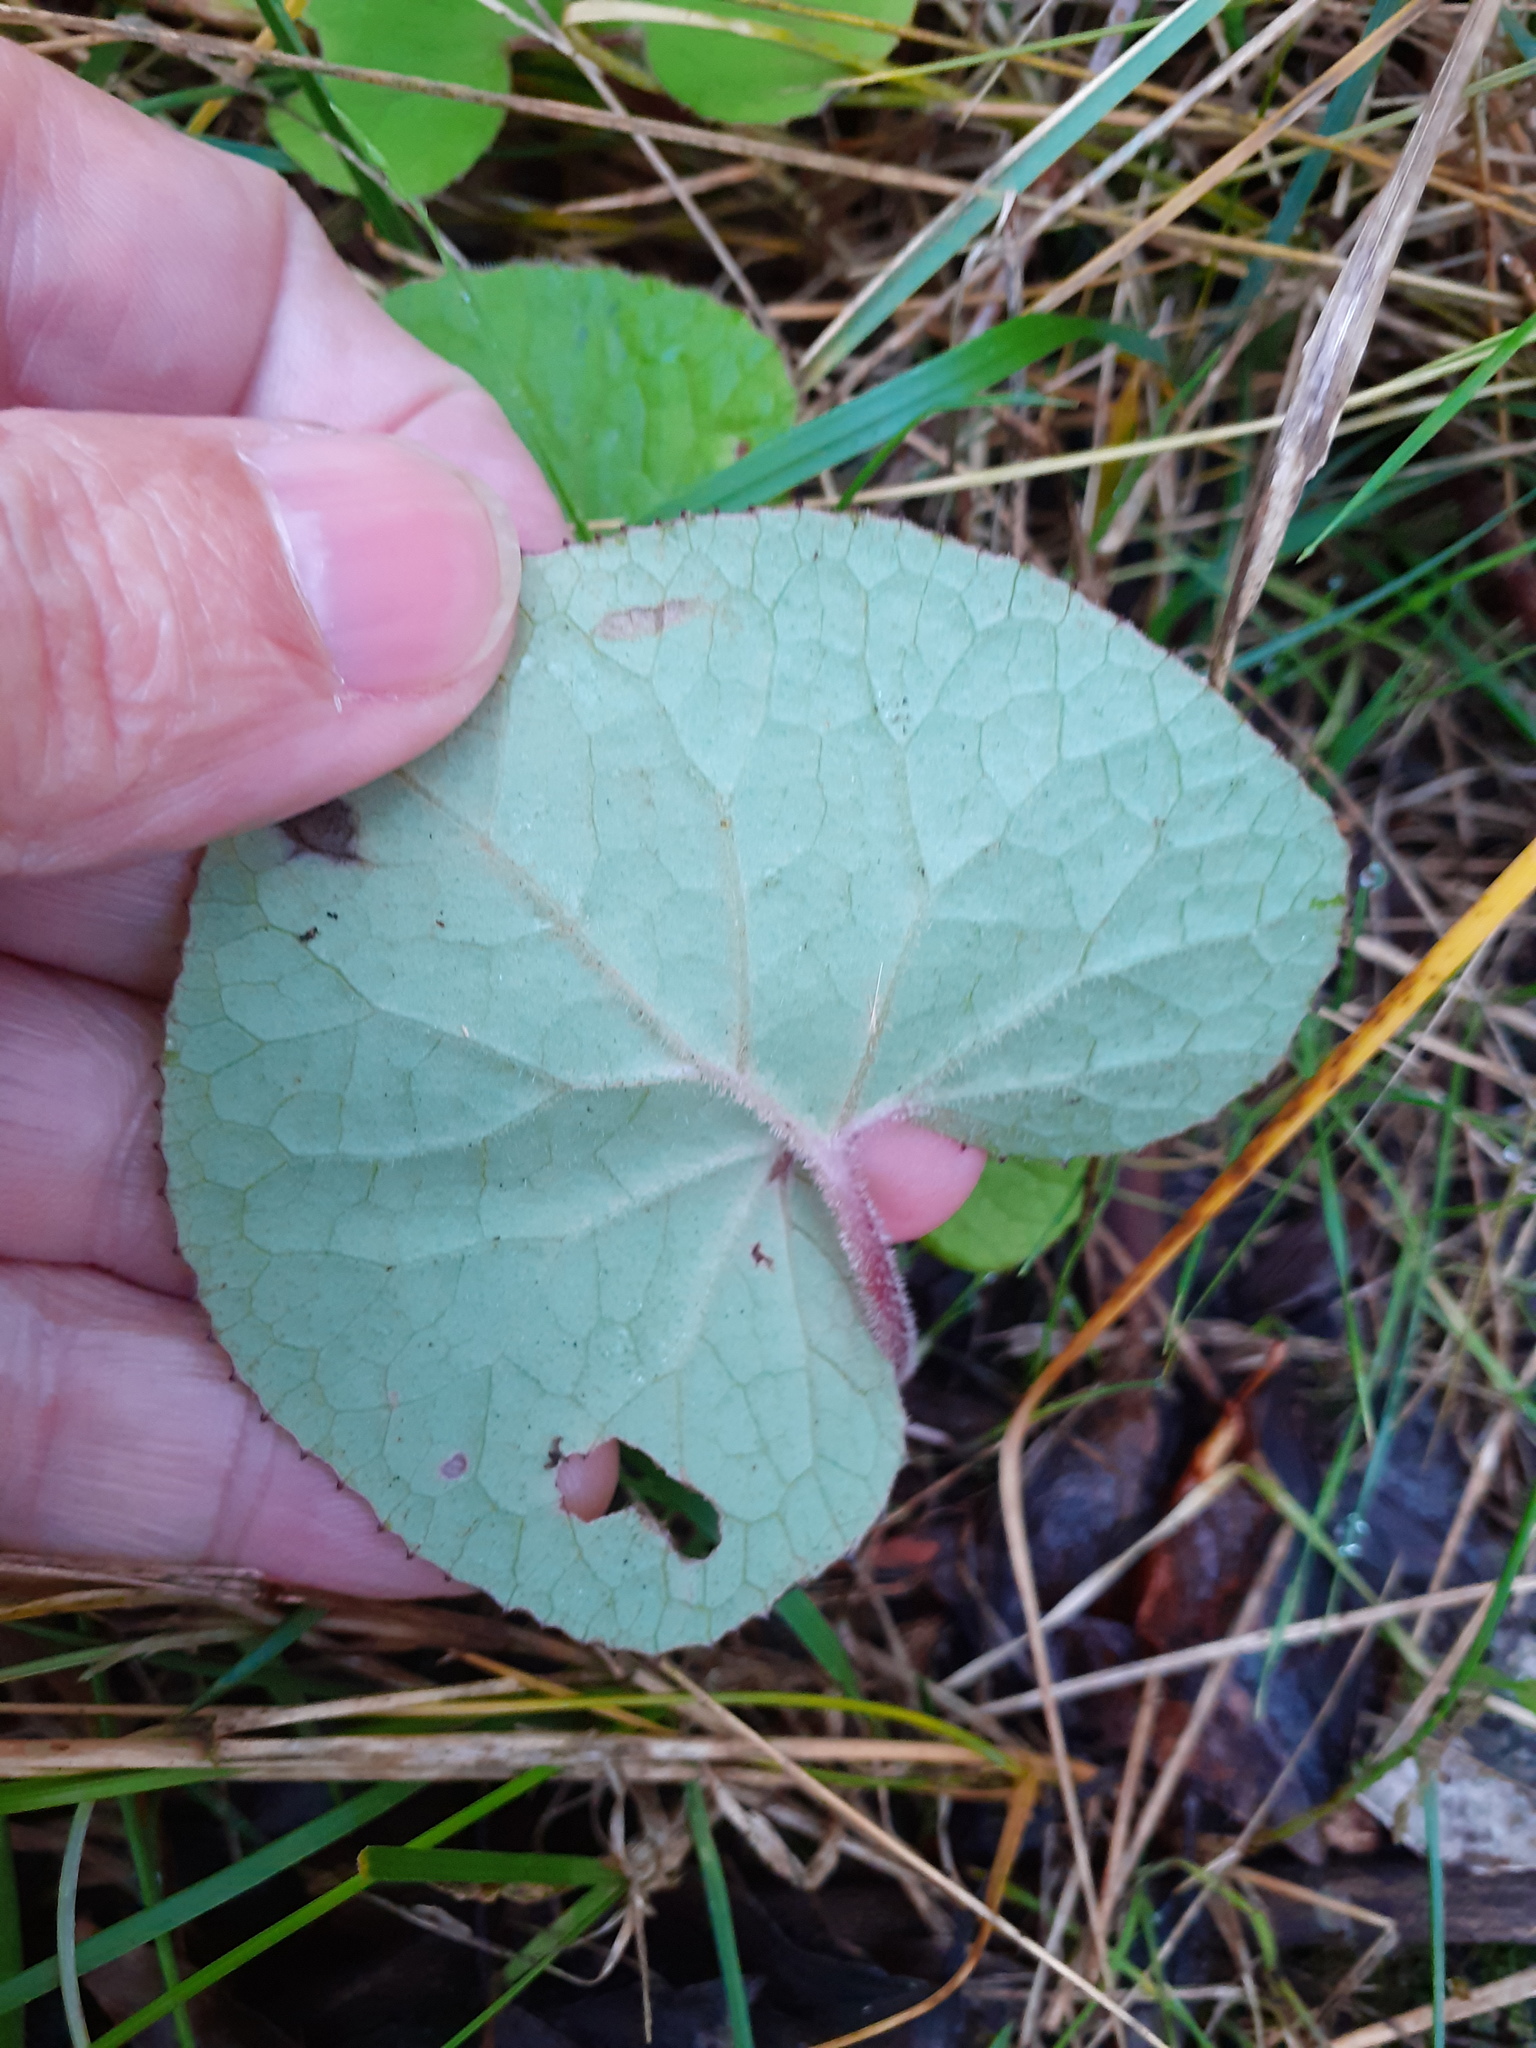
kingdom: Plantae
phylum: Tracheophyta
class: Magnoliopsida
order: Asterales
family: Asteraceae
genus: Petasites
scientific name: Petasites pyrenaicus
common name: Winter heliotrope
